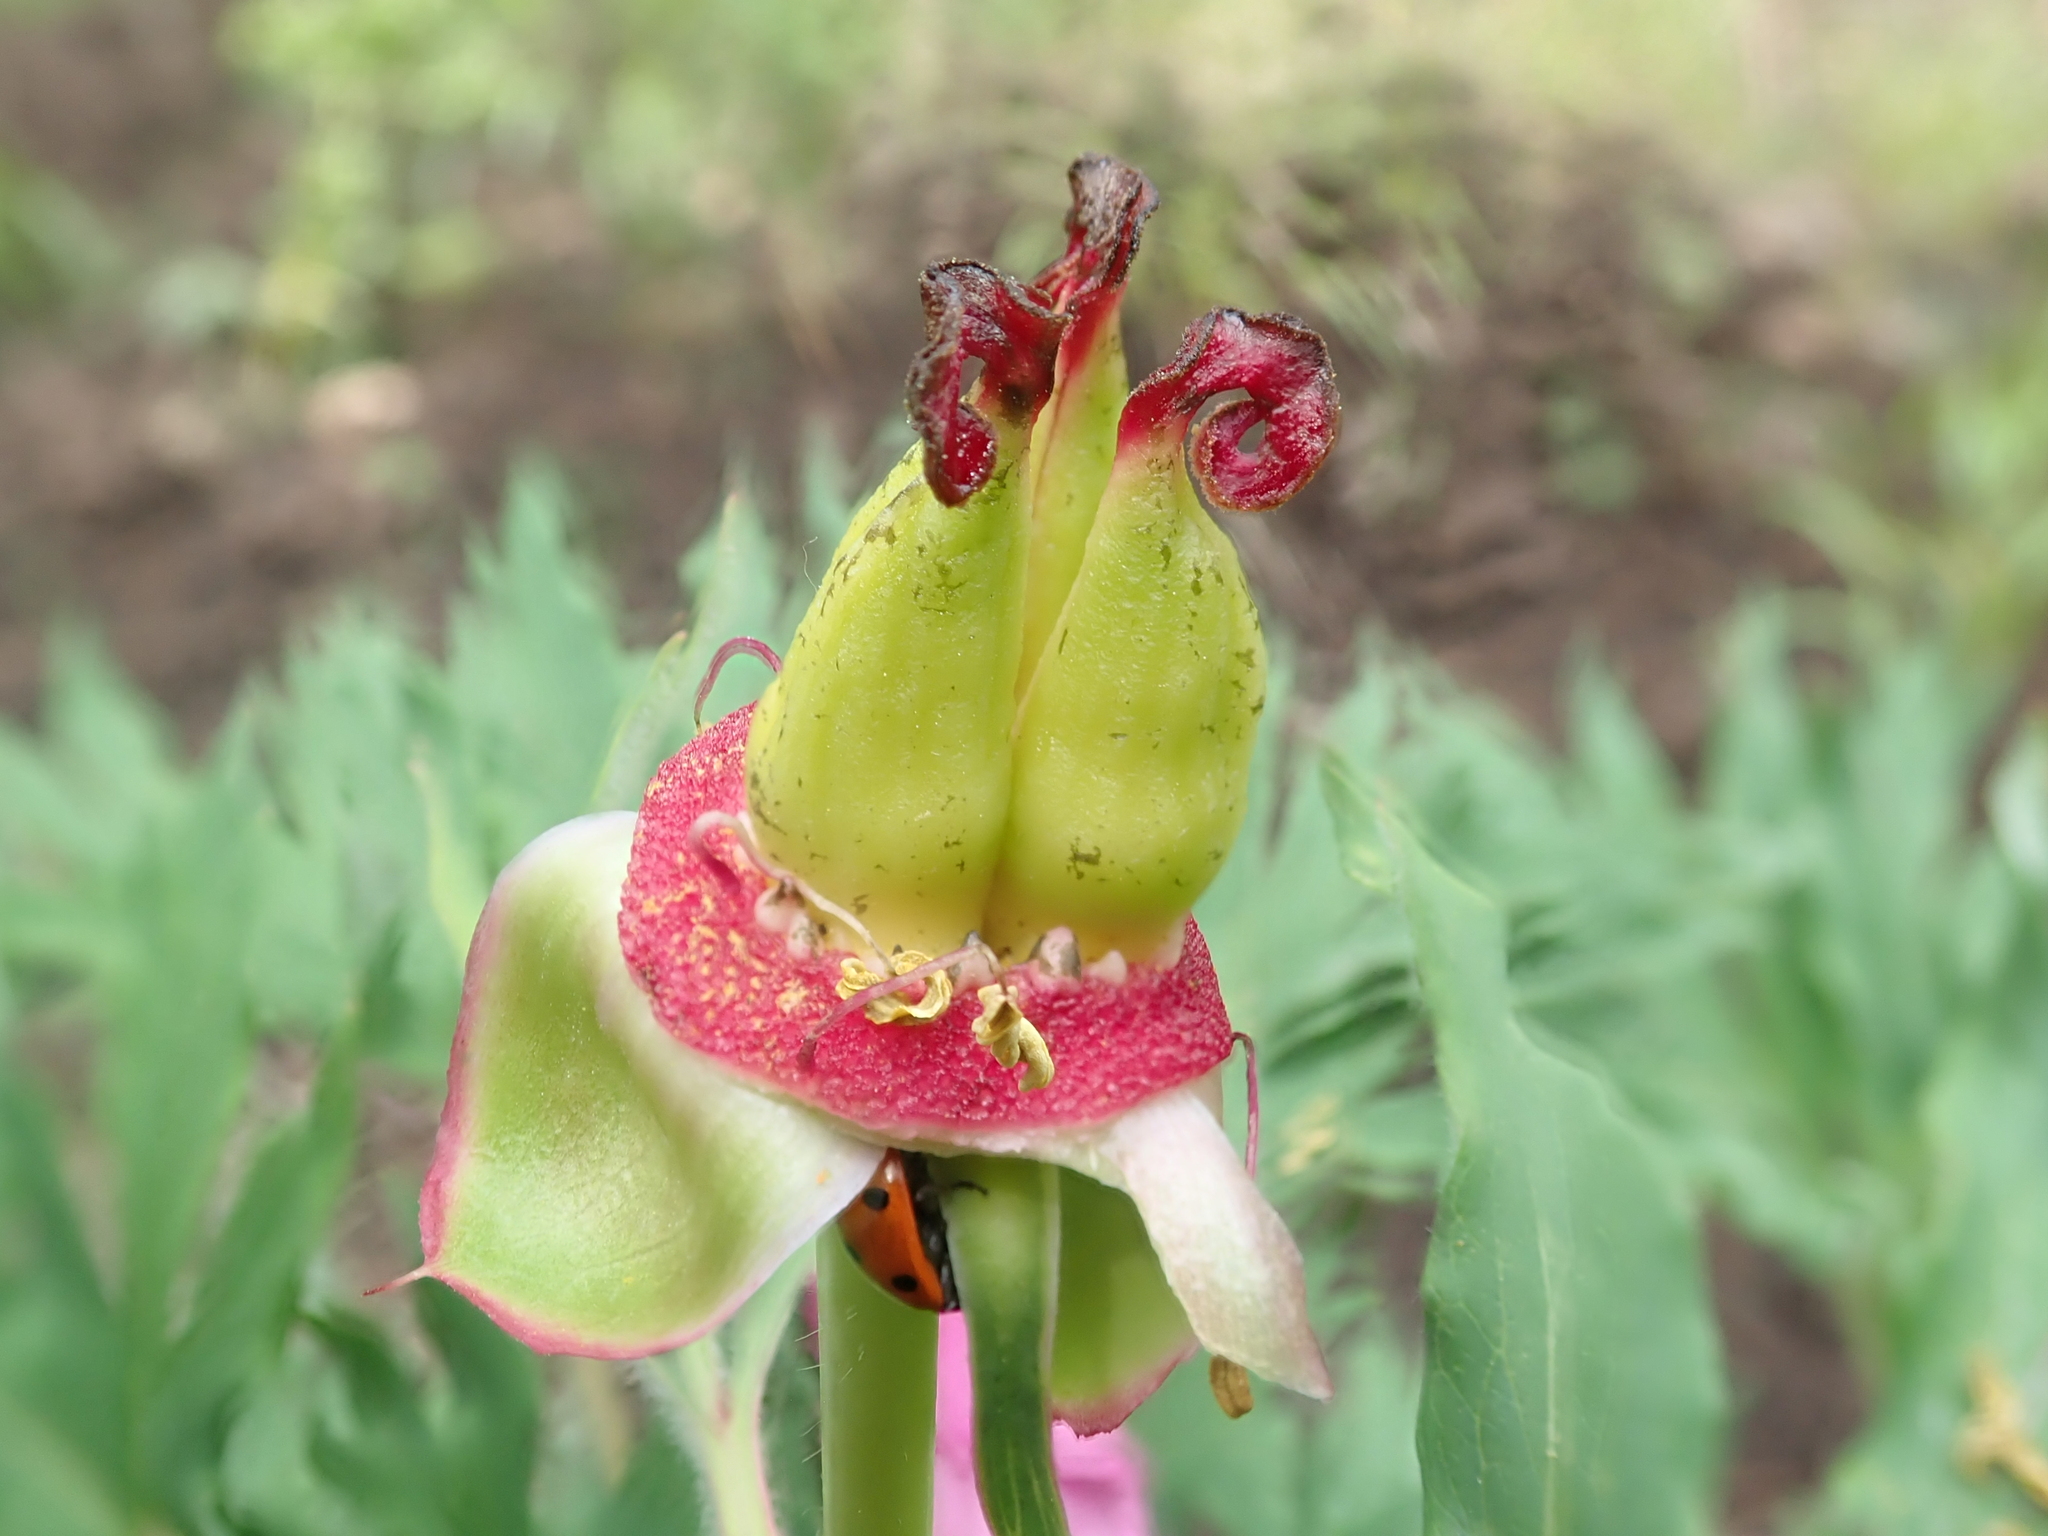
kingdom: Plantae
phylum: Tracheophyta
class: Magnoliopsida
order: Saxifragales
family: Paeoniaceae
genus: Paeonia
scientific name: Paeonia officinalis
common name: Common peony
